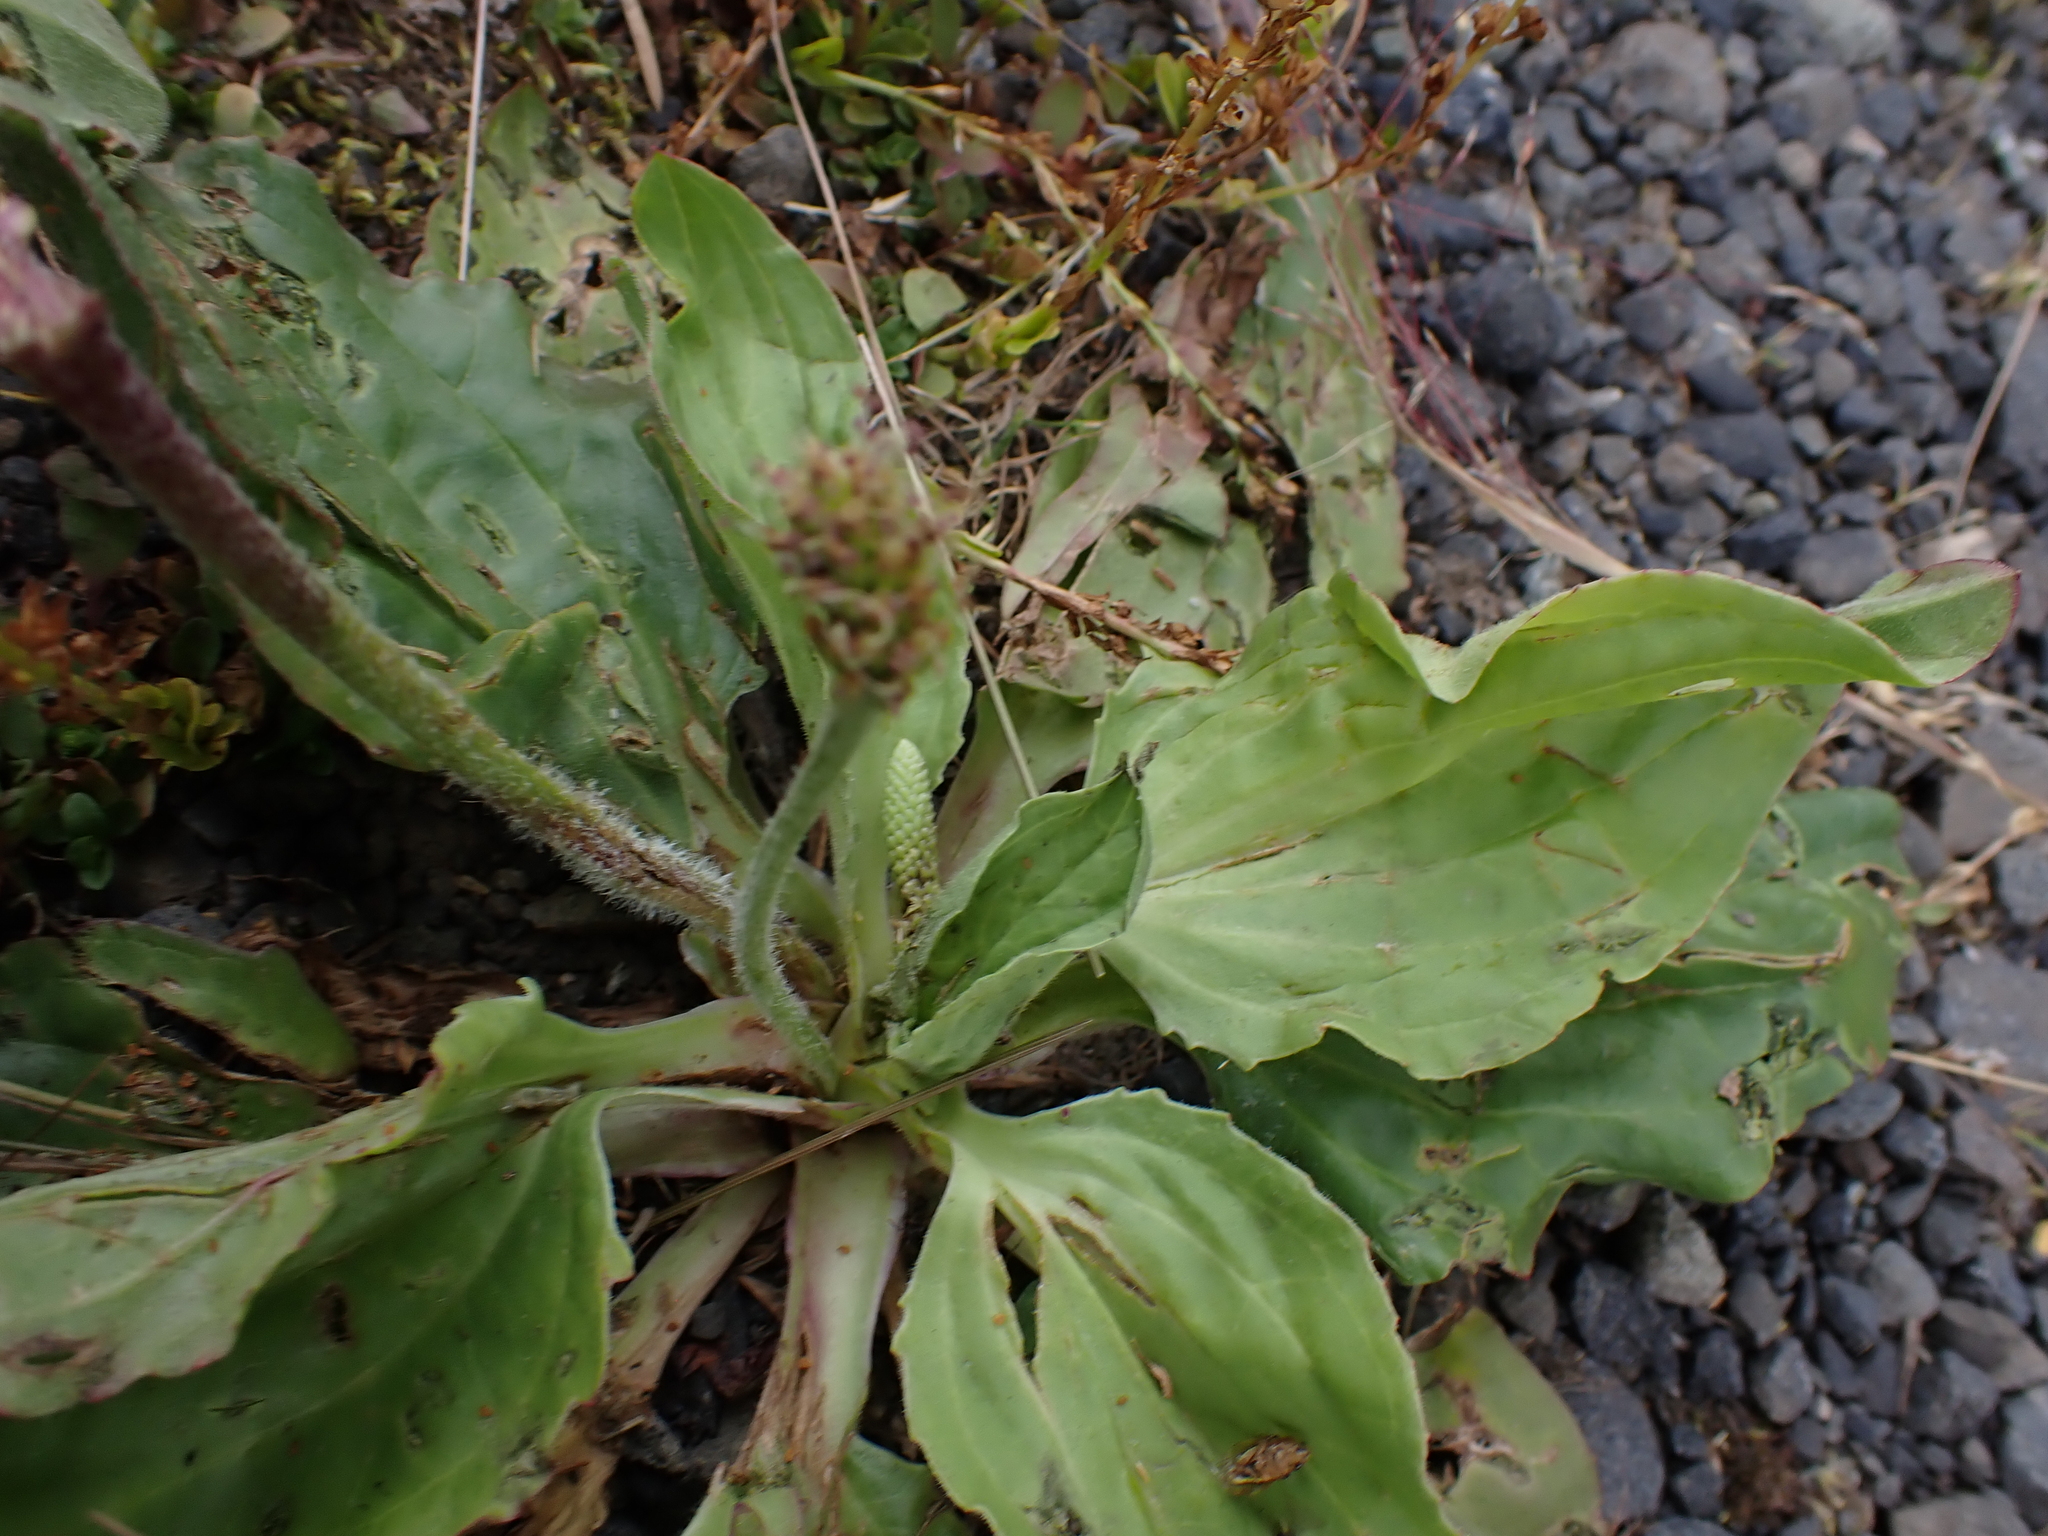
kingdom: Plantae
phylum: Tracheophyta
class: Magnoliopsida
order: Lamiales
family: Plantaginaceae
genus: Plantago
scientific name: Plantago major
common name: Common plantain
